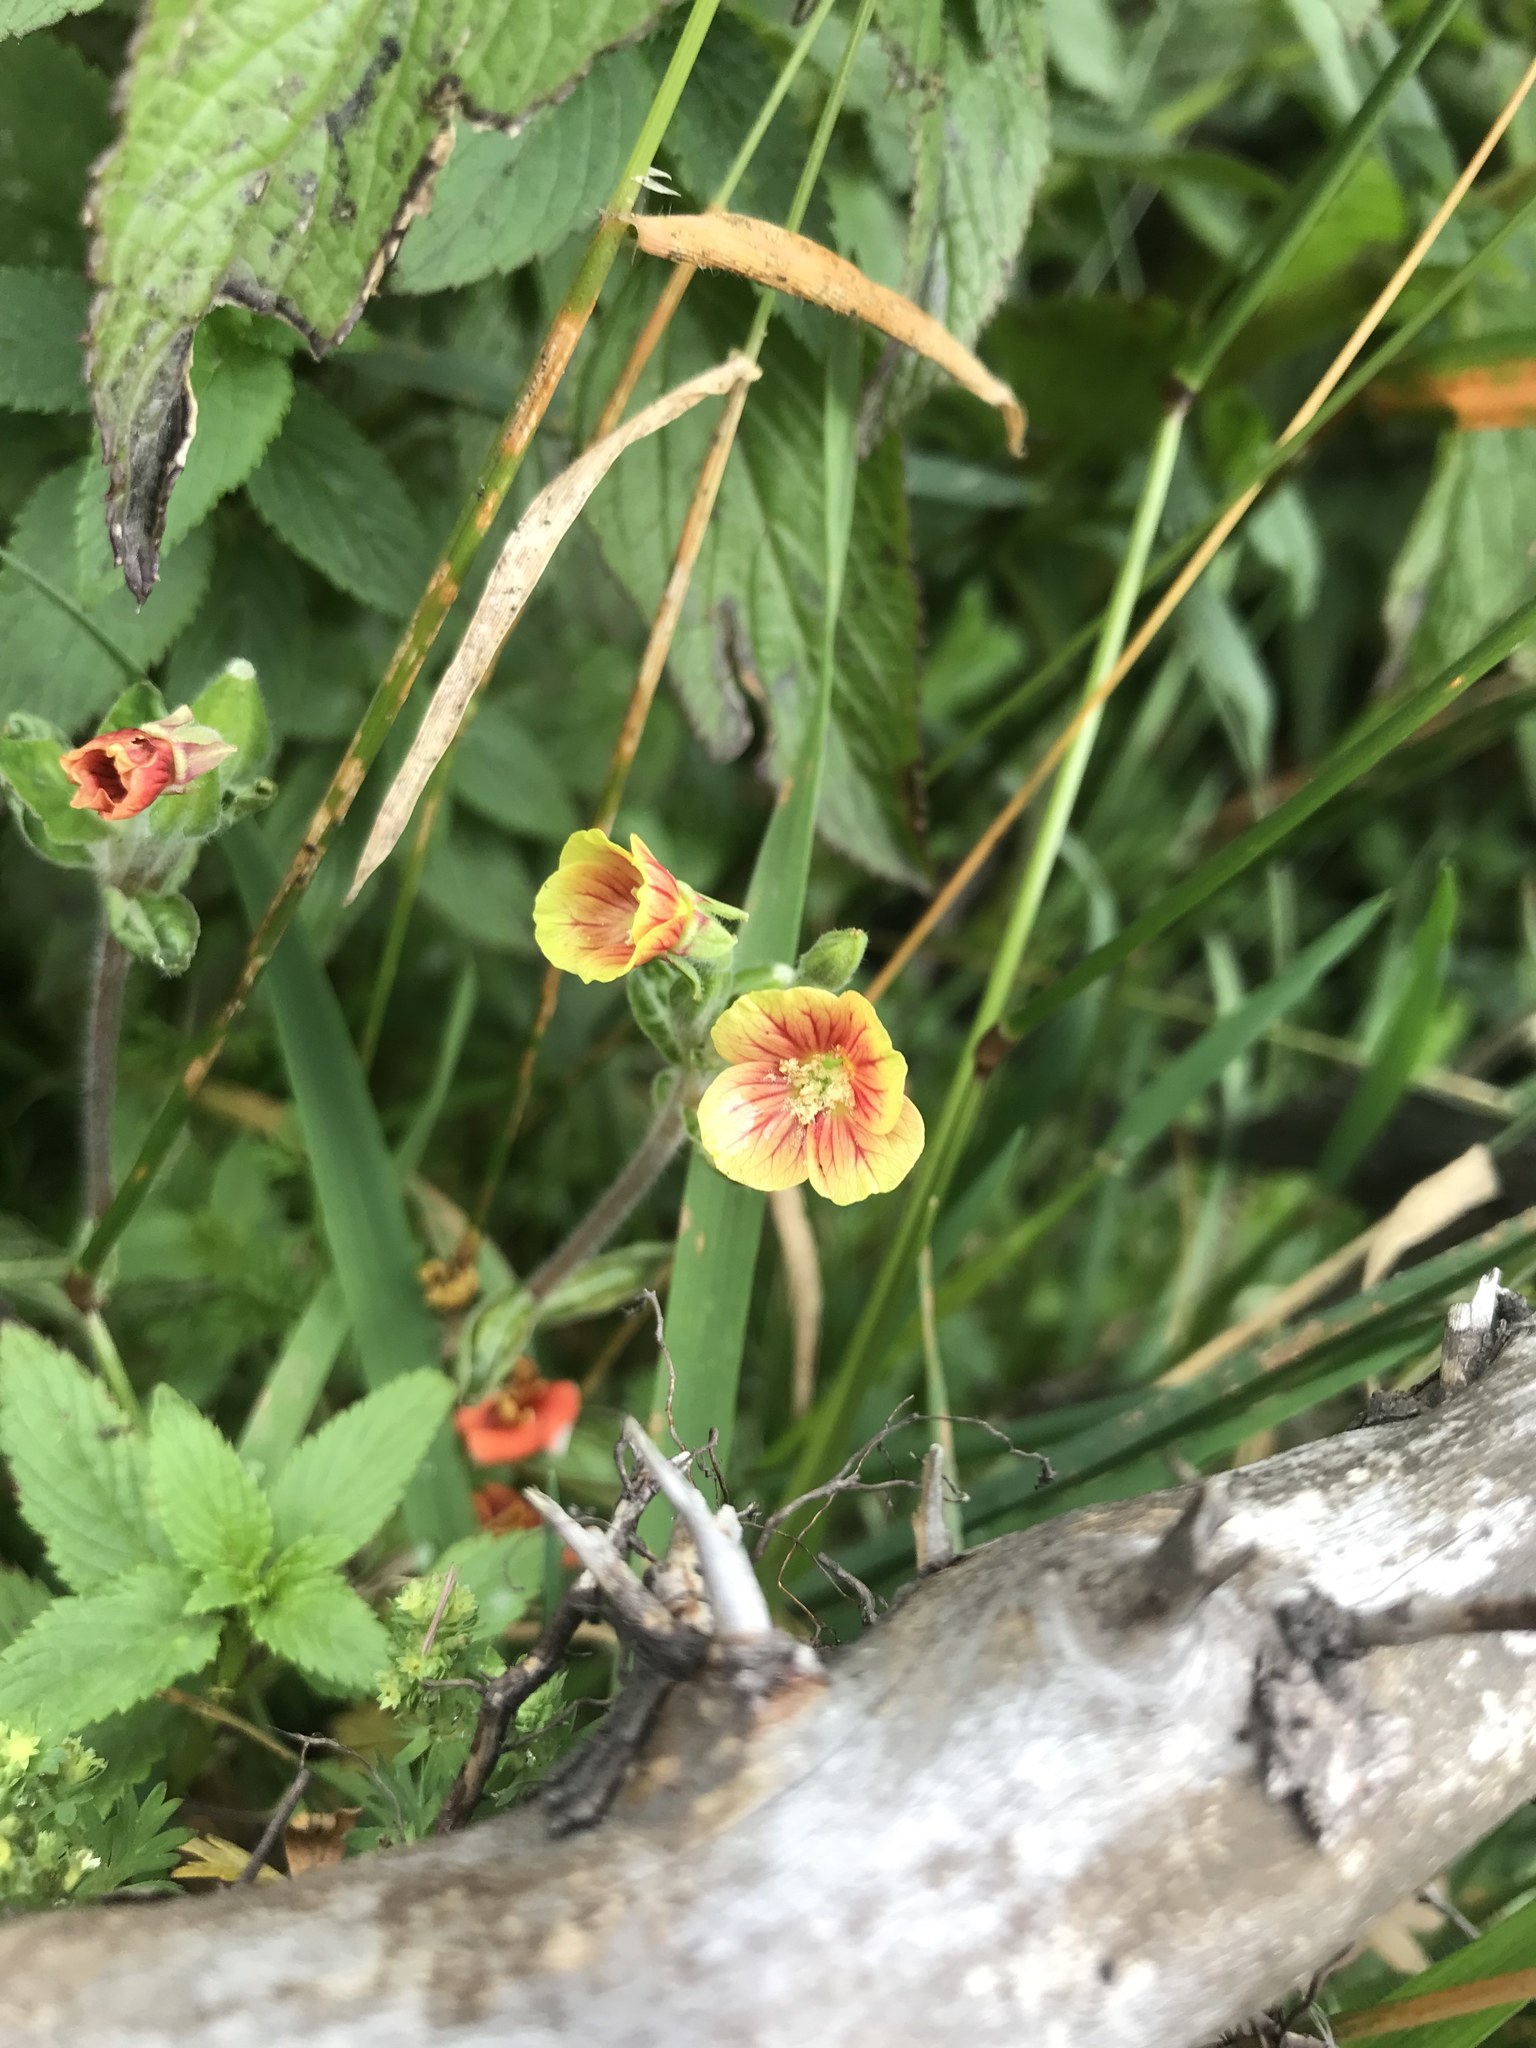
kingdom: Plantae
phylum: Tracheophyta
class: Magnoliopsida
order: Myrtales
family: Onagraceae
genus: Oenothera
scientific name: Oenothera epilobiifolia
